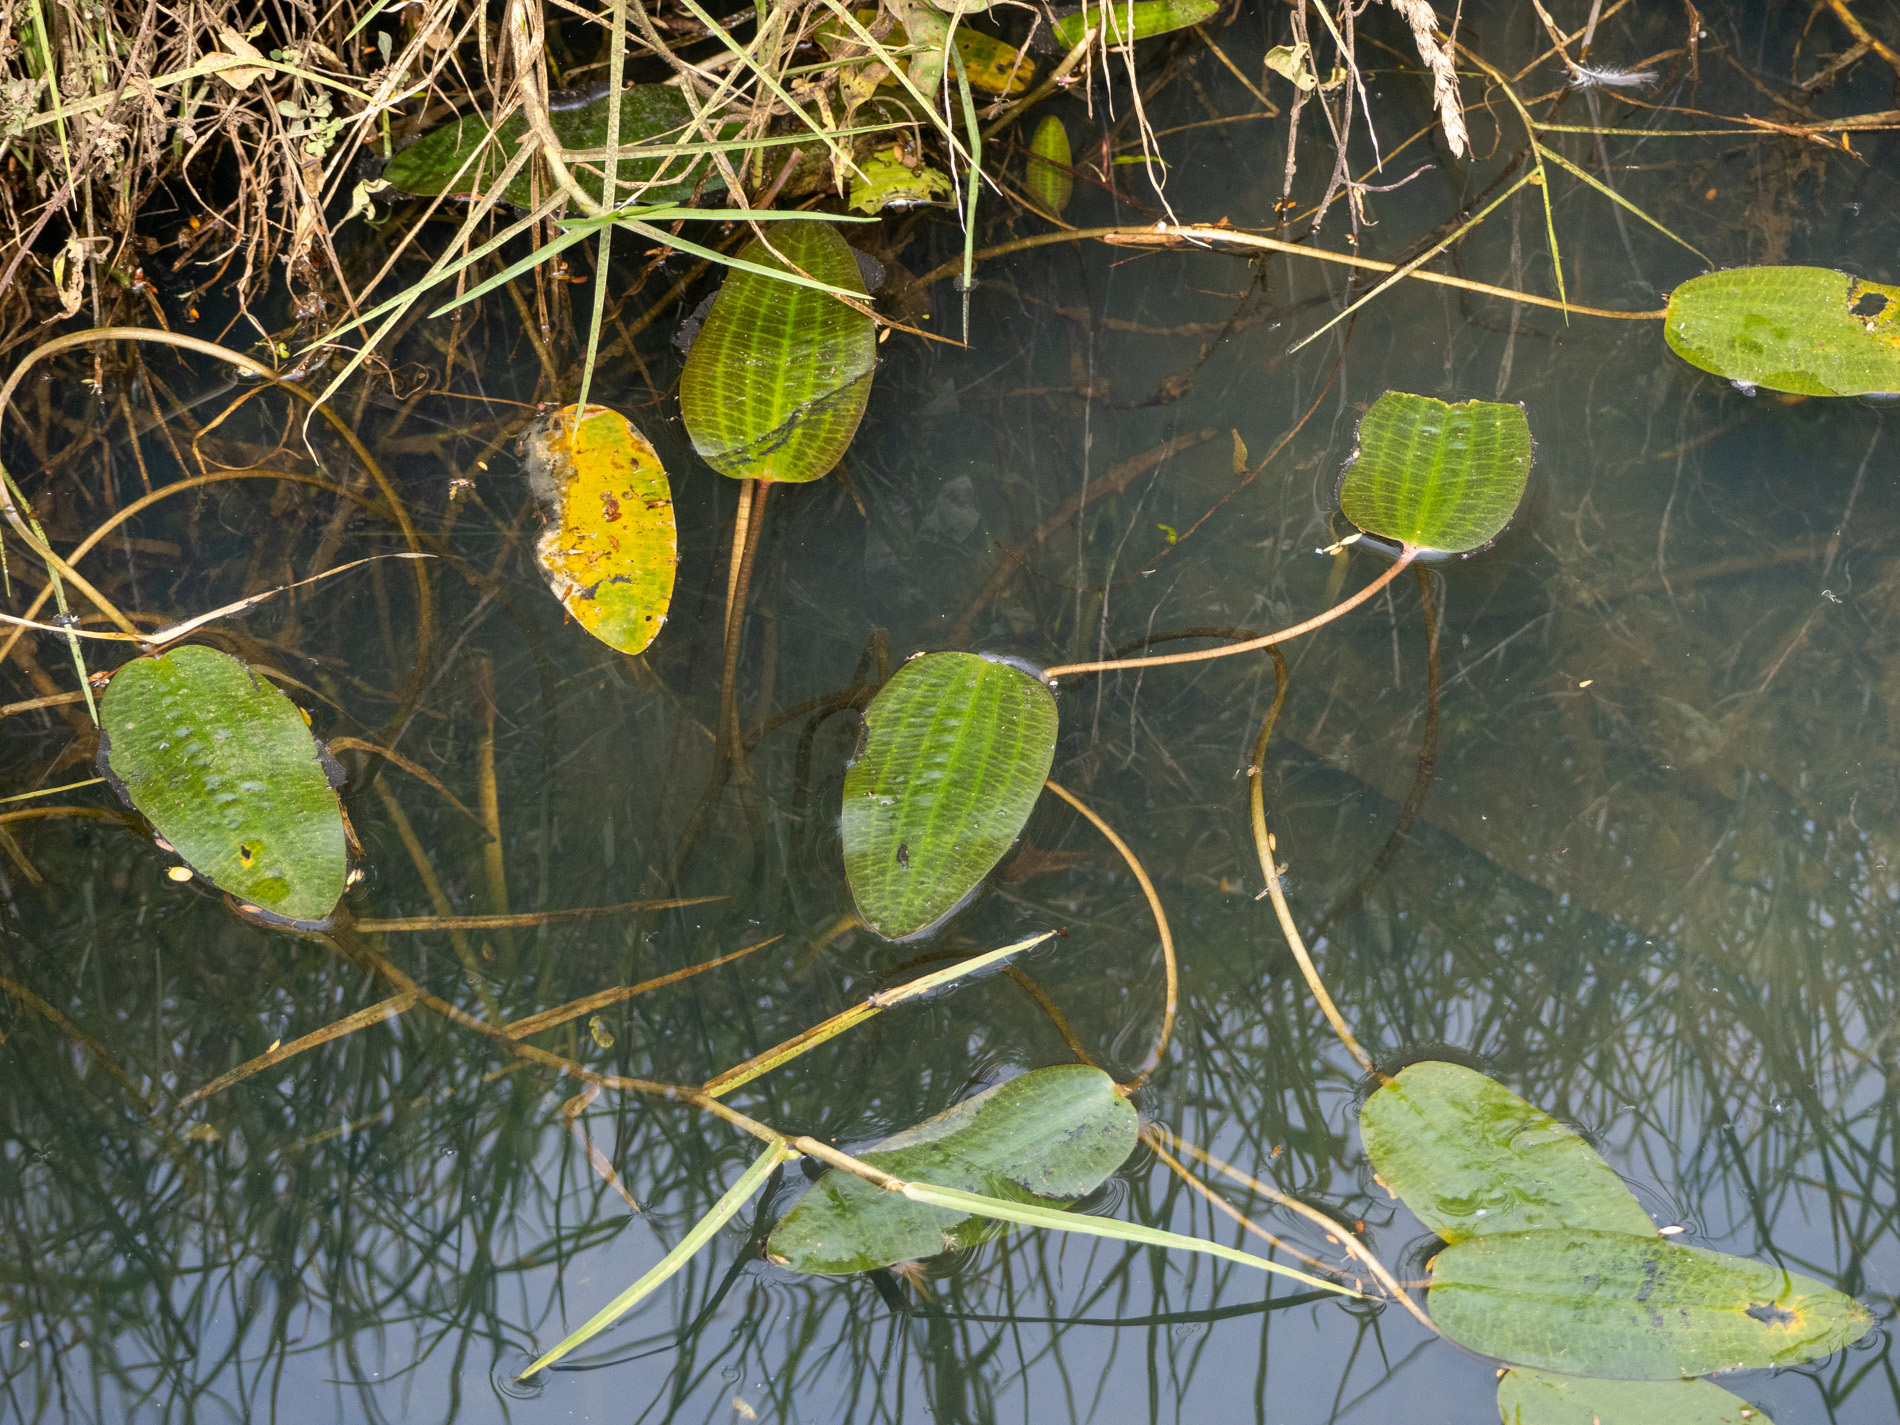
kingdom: Plantae
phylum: Tracheophyta
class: Liliopsida
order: Alismatales
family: Hydrocharitaceae
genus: Ottelia
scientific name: Ottelia ovalifolia
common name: Swamp-lily
